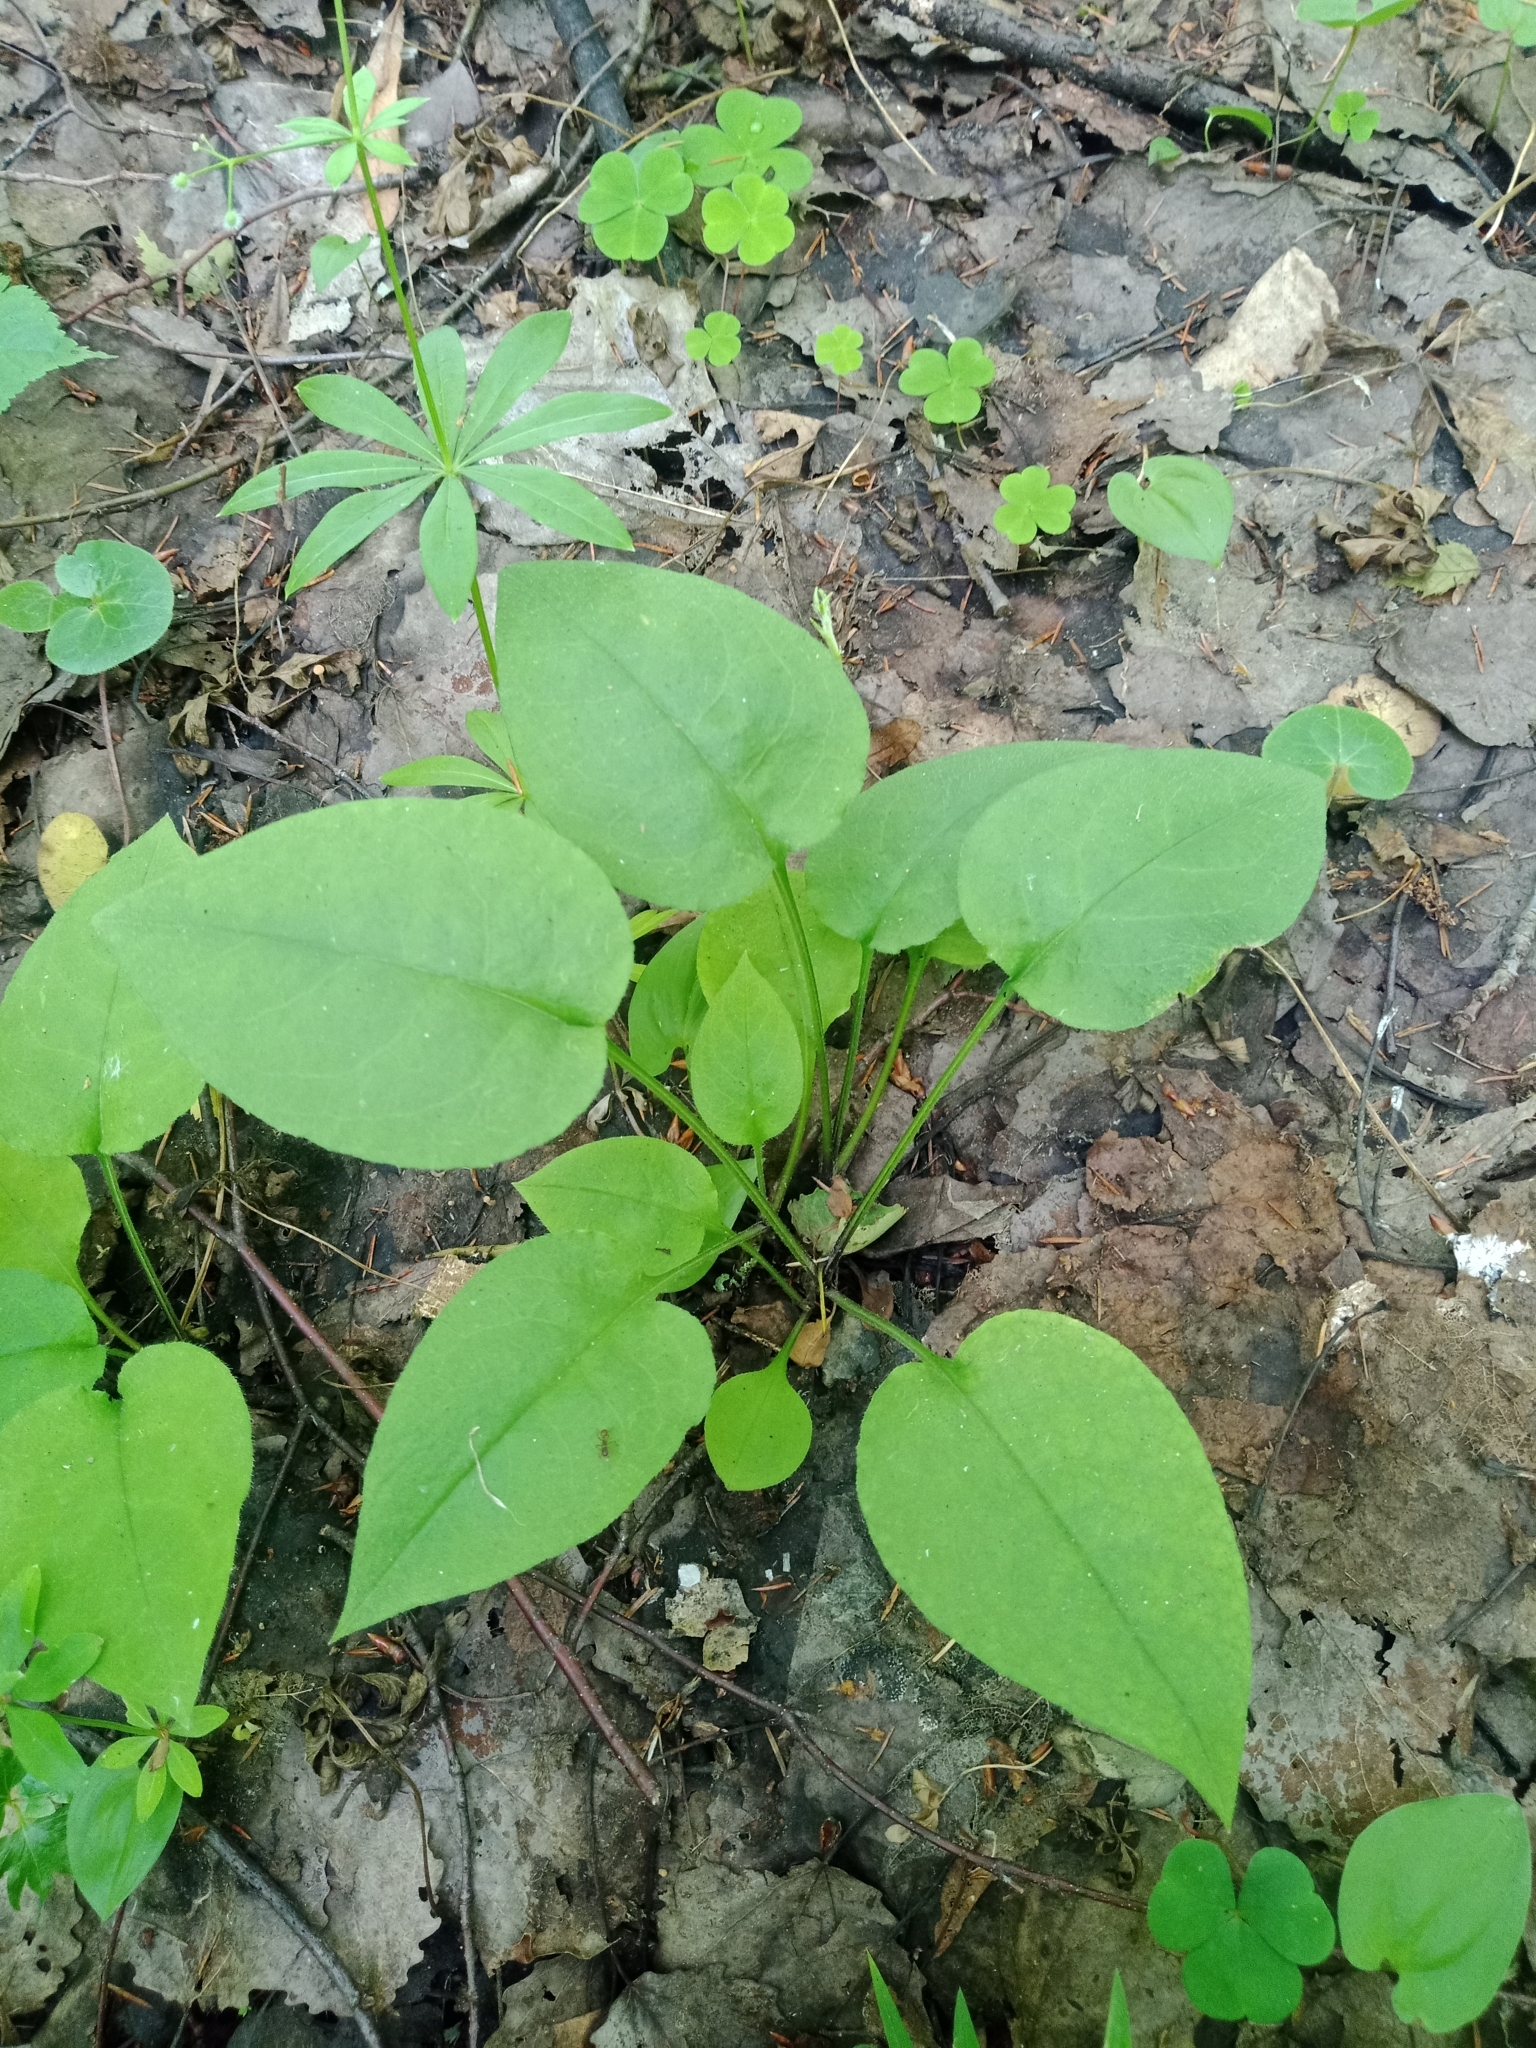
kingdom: Plantae
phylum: Tracheophyta
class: Magnoliopsida
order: Boraginales
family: Boraginaceae
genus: Pulmonaria
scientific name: Pulmonaria obscura
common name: Suffolk lungwort
